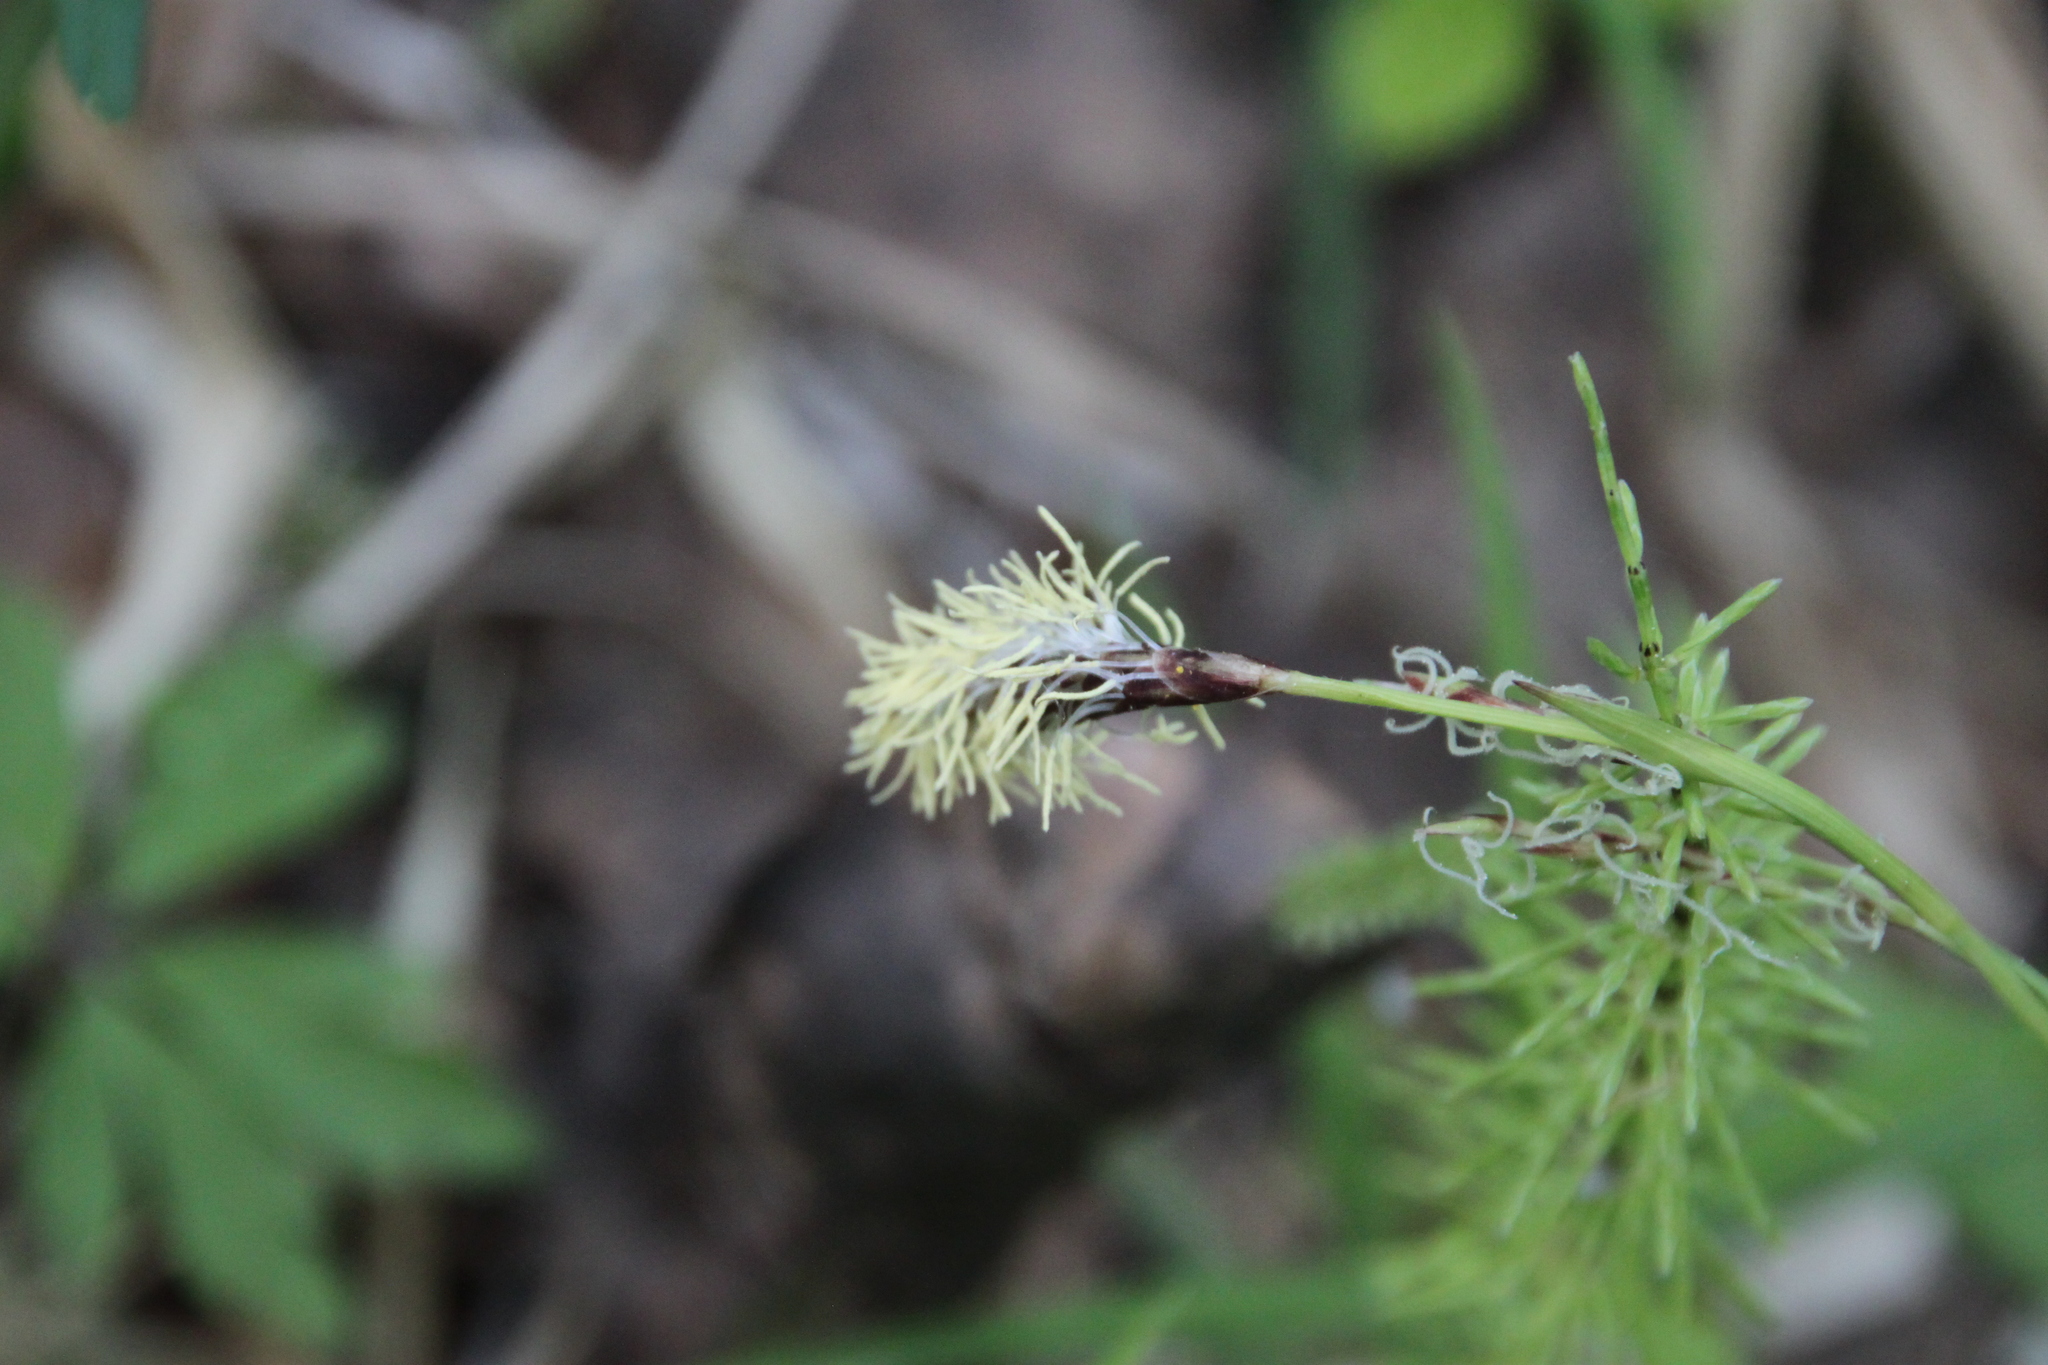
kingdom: Plantae
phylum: Tracheophyta
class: Liliopsida
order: Poales
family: Cyperaceae
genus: Carex
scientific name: Carex pilosa
